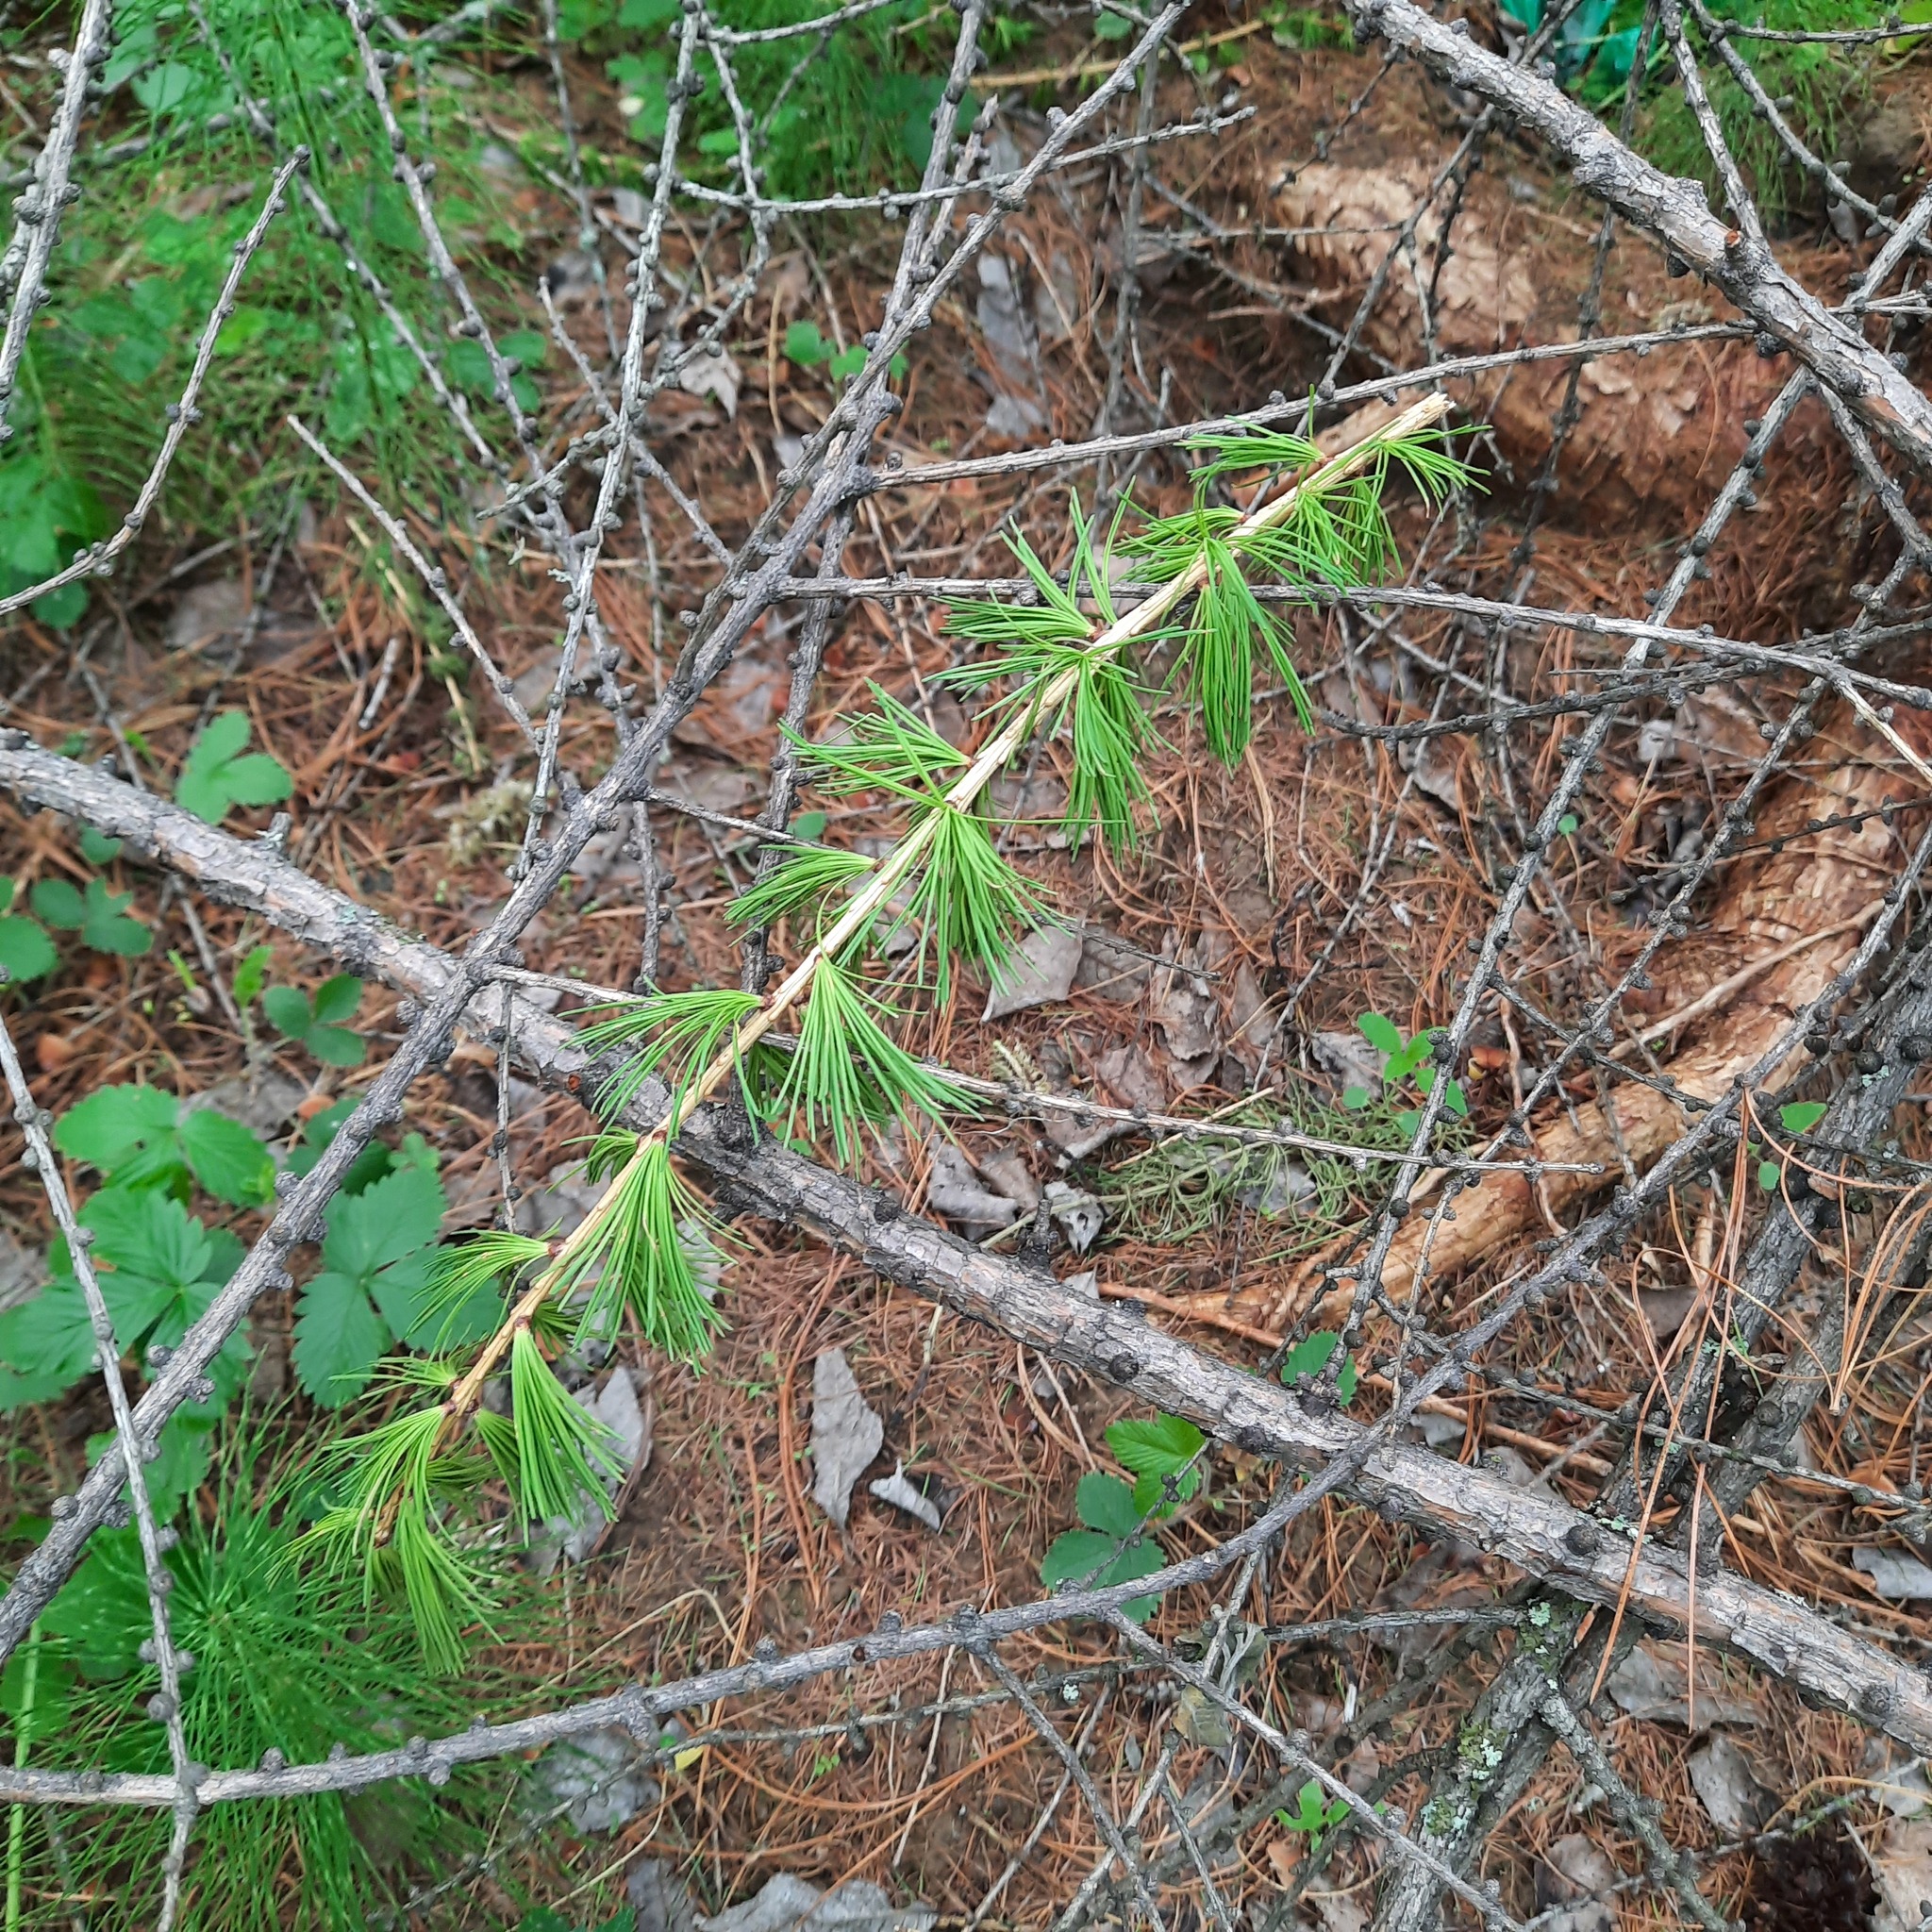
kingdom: Plantae
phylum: Tracheophyta
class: Pinopsida
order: Pinales
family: Pinaceae
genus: Larix
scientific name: Larix sibirica
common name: Siberian larch
